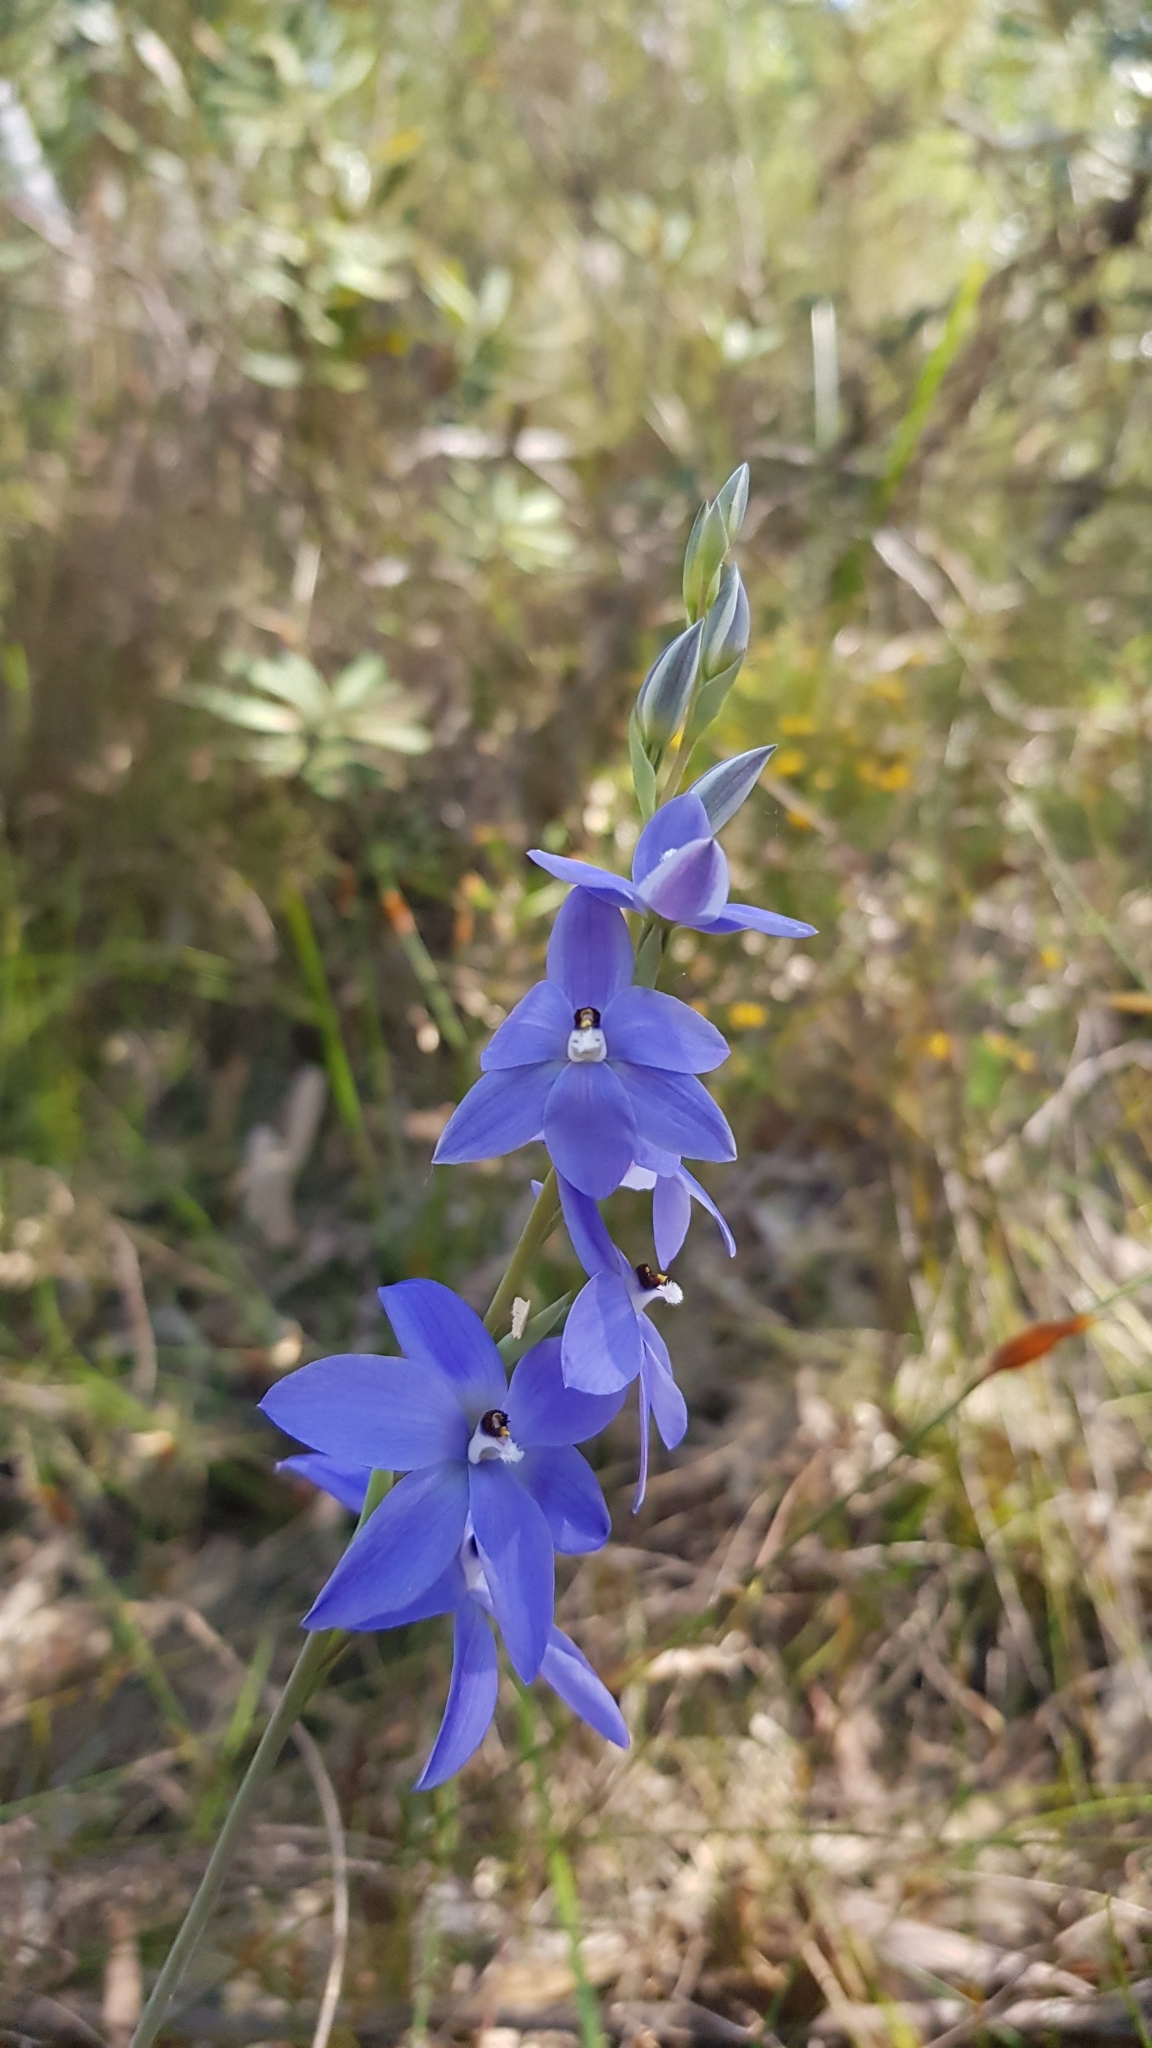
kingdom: Plantae
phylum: Tracheophyta
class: Liliopsida
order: Asparagales
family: Orchidaceae
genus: Thelymitra
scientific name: Thelymitra ixioides
